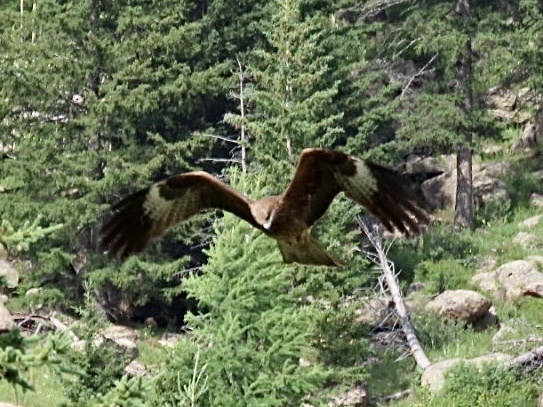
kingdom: Animalia
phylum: Chordata
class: Aves
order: Accipitriformes
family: Accipitridae
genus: Milvus
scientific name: Milvus migrans
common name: Black kite
